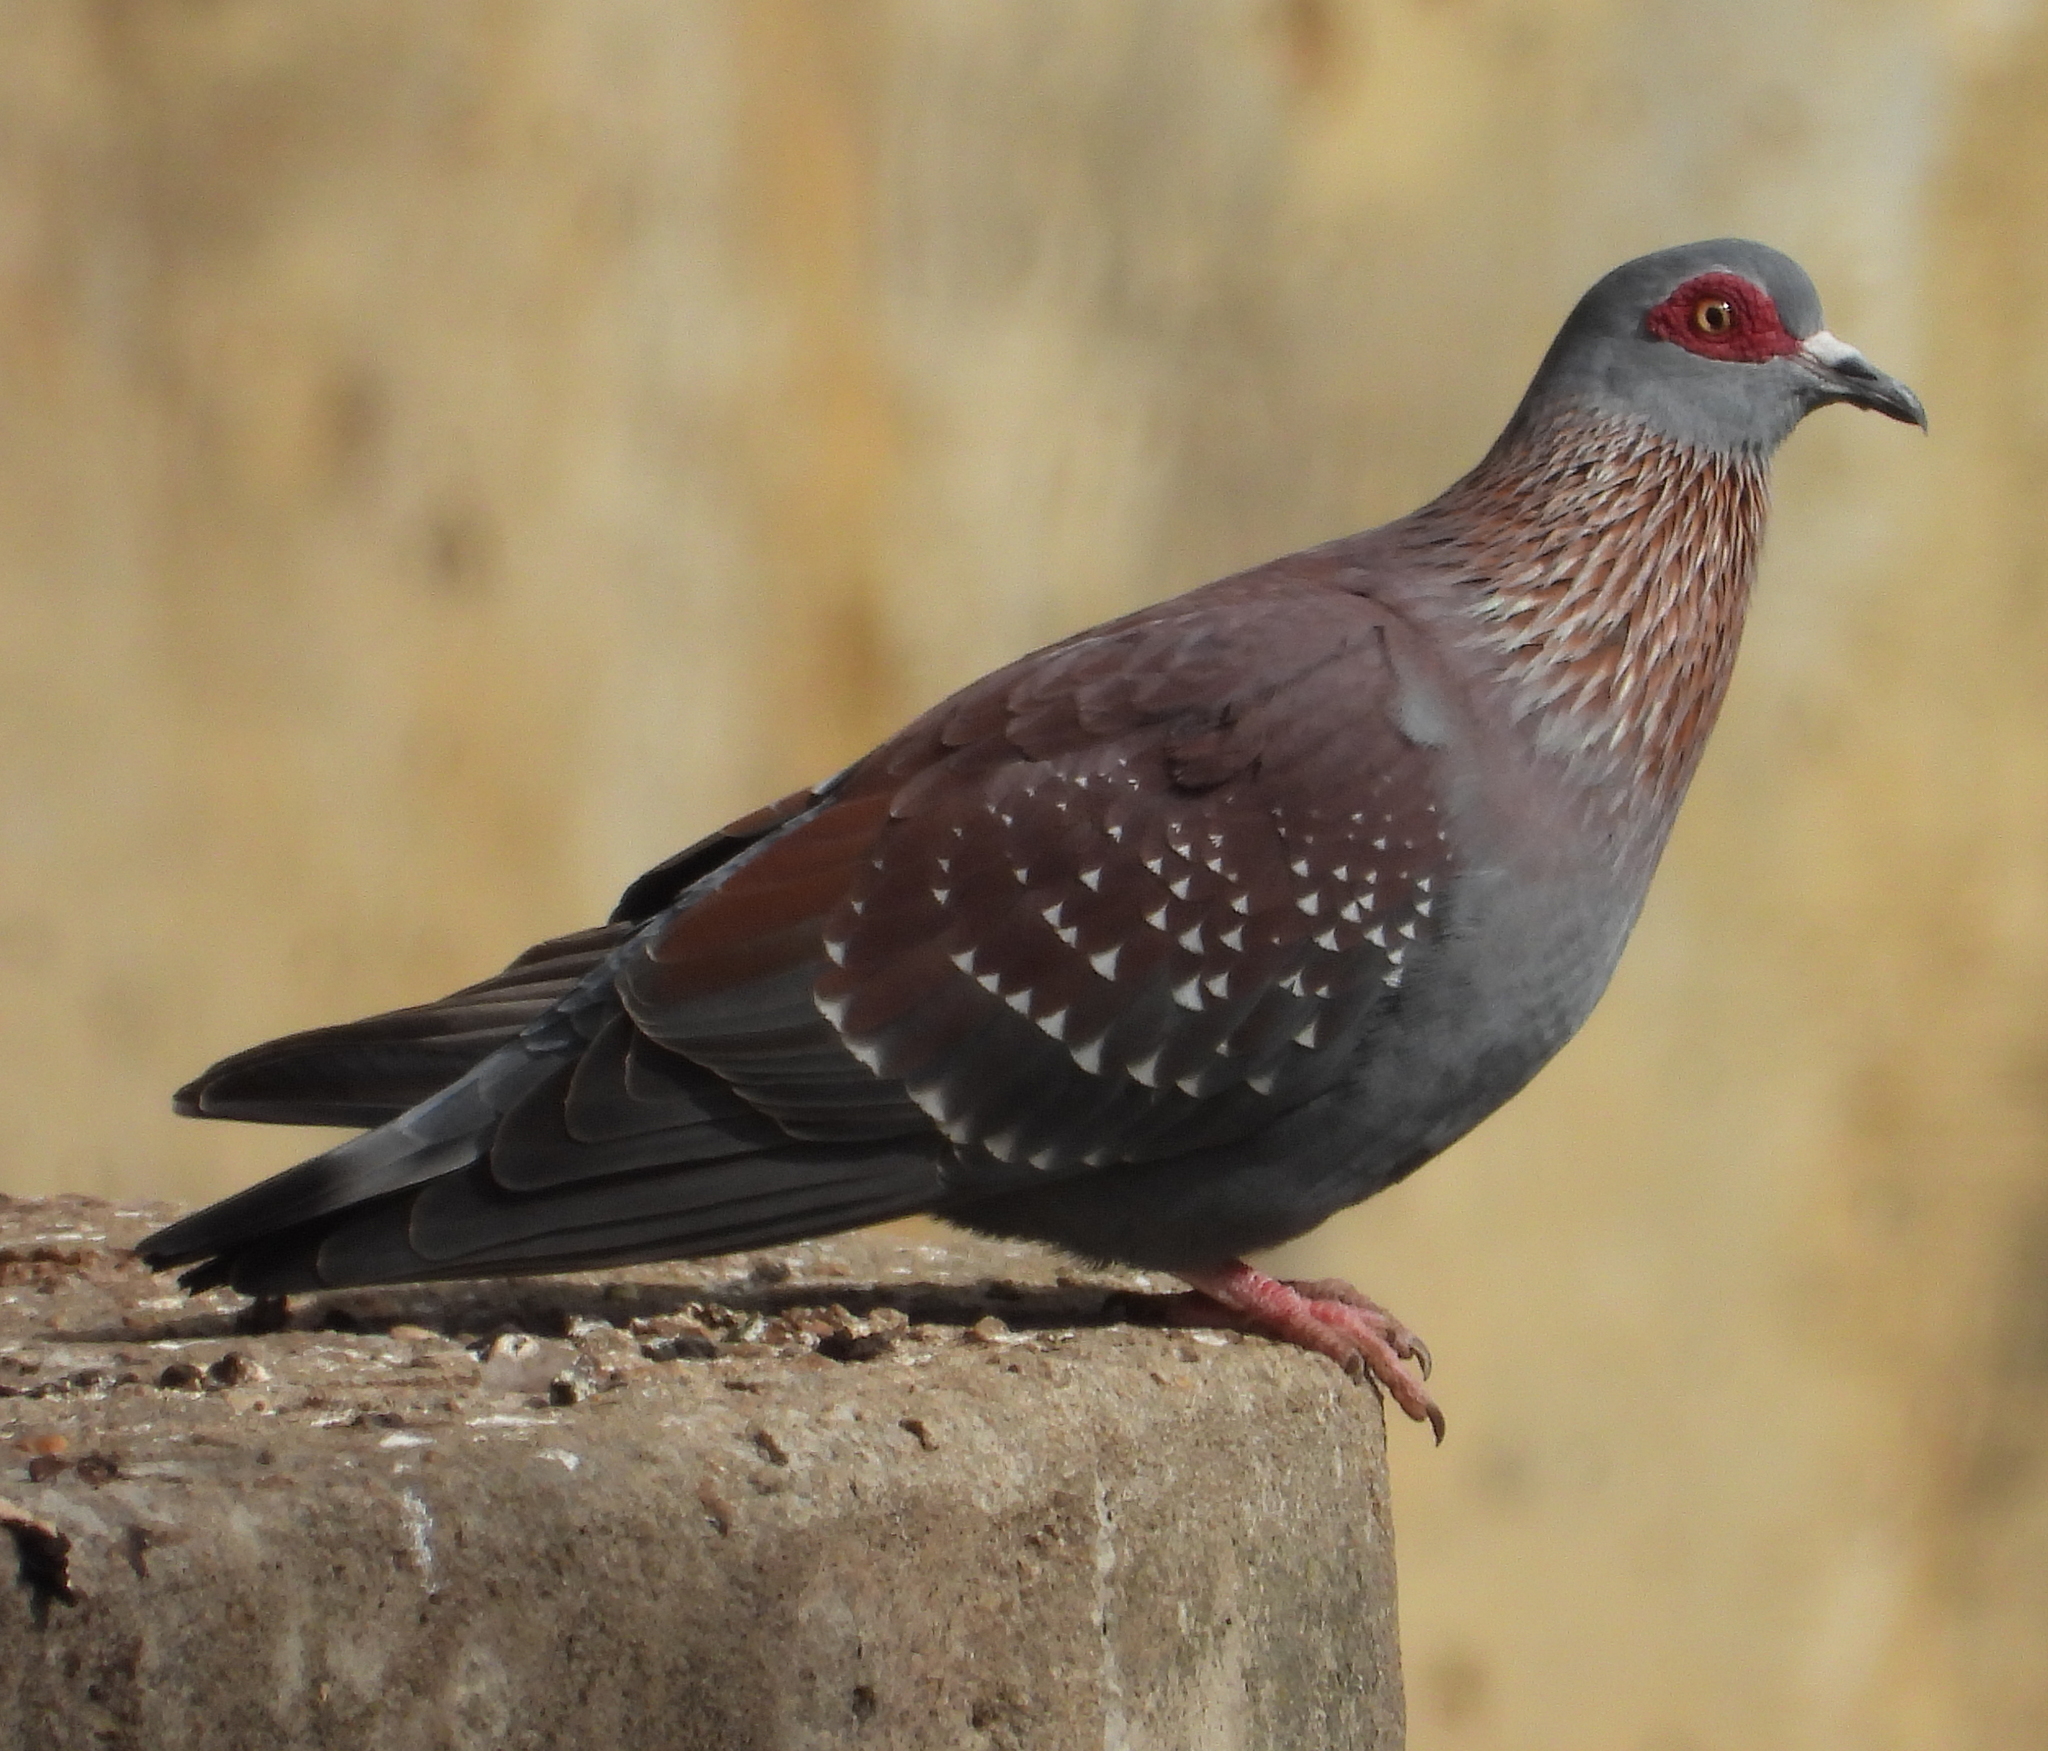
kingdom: Animalia
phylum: Chordata
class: Aves
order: Columbiformes
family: Columbidae
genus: Columba
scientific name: Columba guinea
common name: Speckled pigeon
